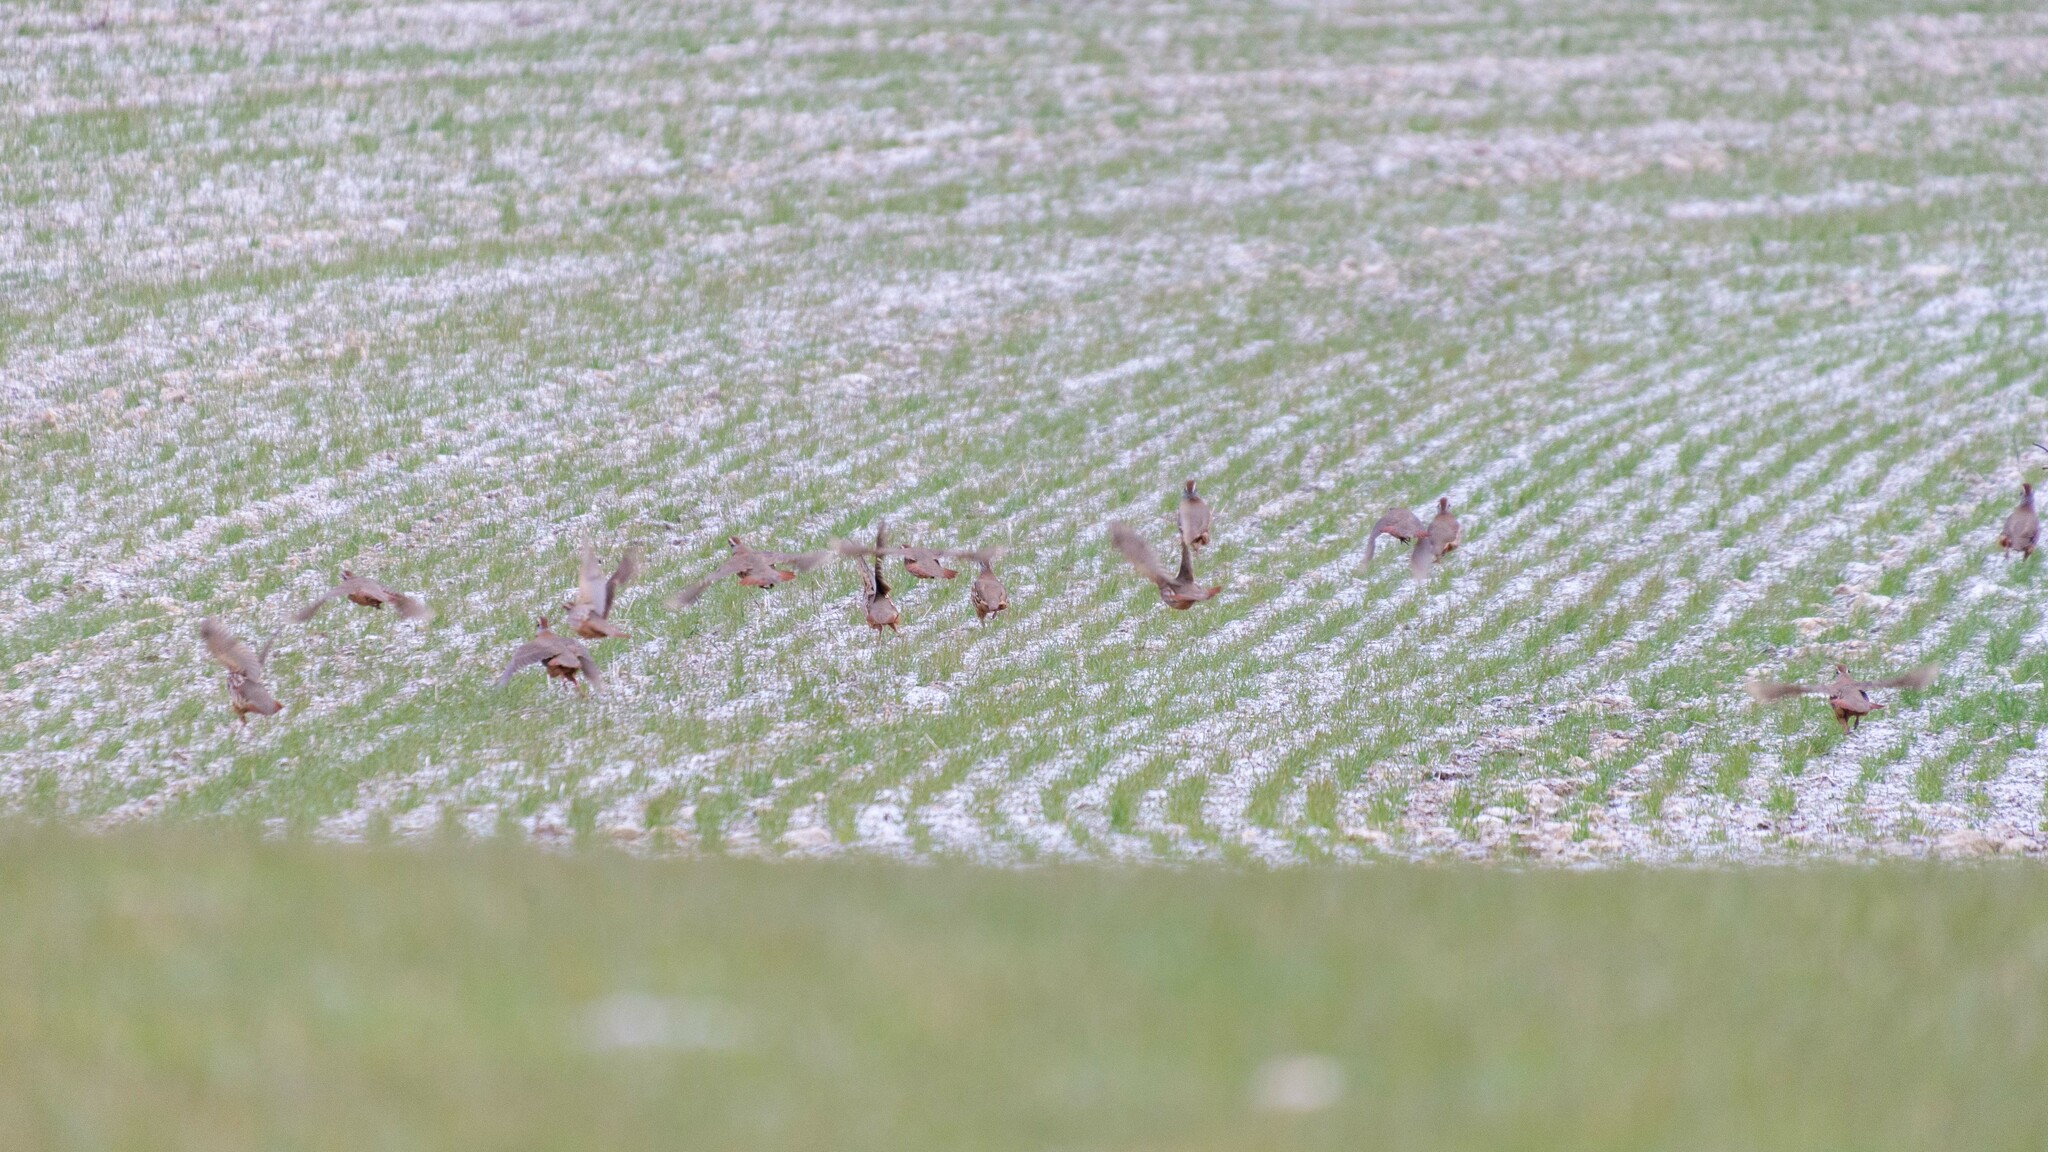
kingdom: Animalia
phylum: Chordata
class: Aves
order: Galliformes
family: Phasianidae
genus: Alectoris
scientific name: Alectoris rufa
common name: Red-legged partridge
